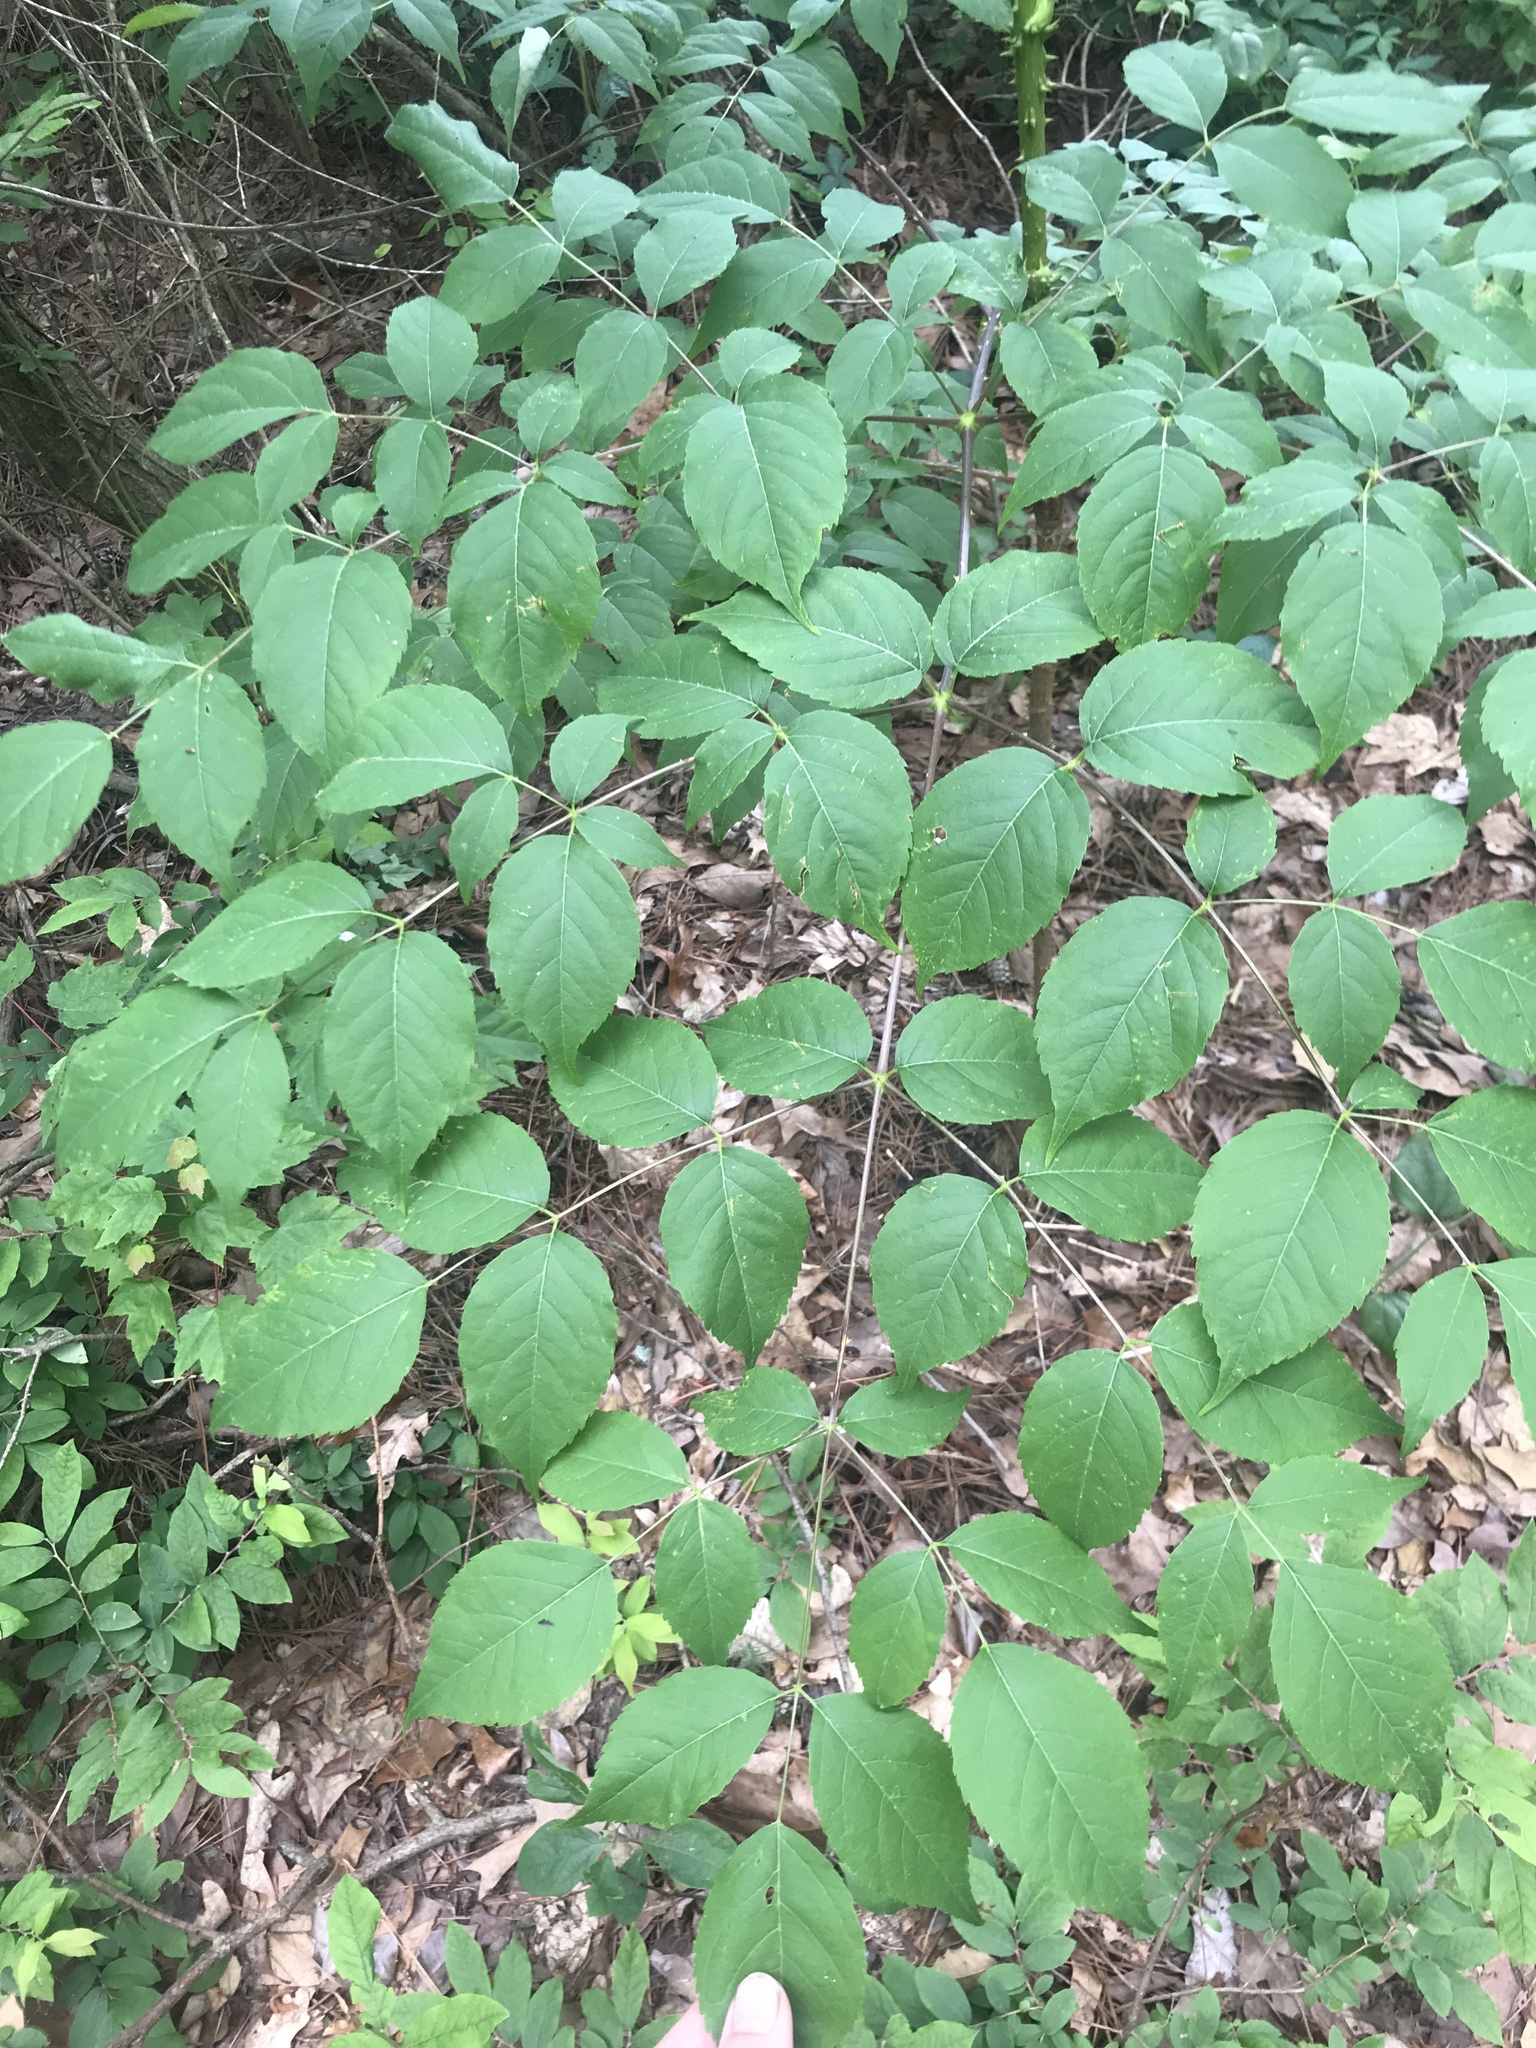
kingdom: Plantae
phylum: Tracheophyta
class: Magnoliopsida
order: Apiales
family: Araliaceae
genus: Aralia
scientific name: Aralia spinosa
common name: Hercules'-club
